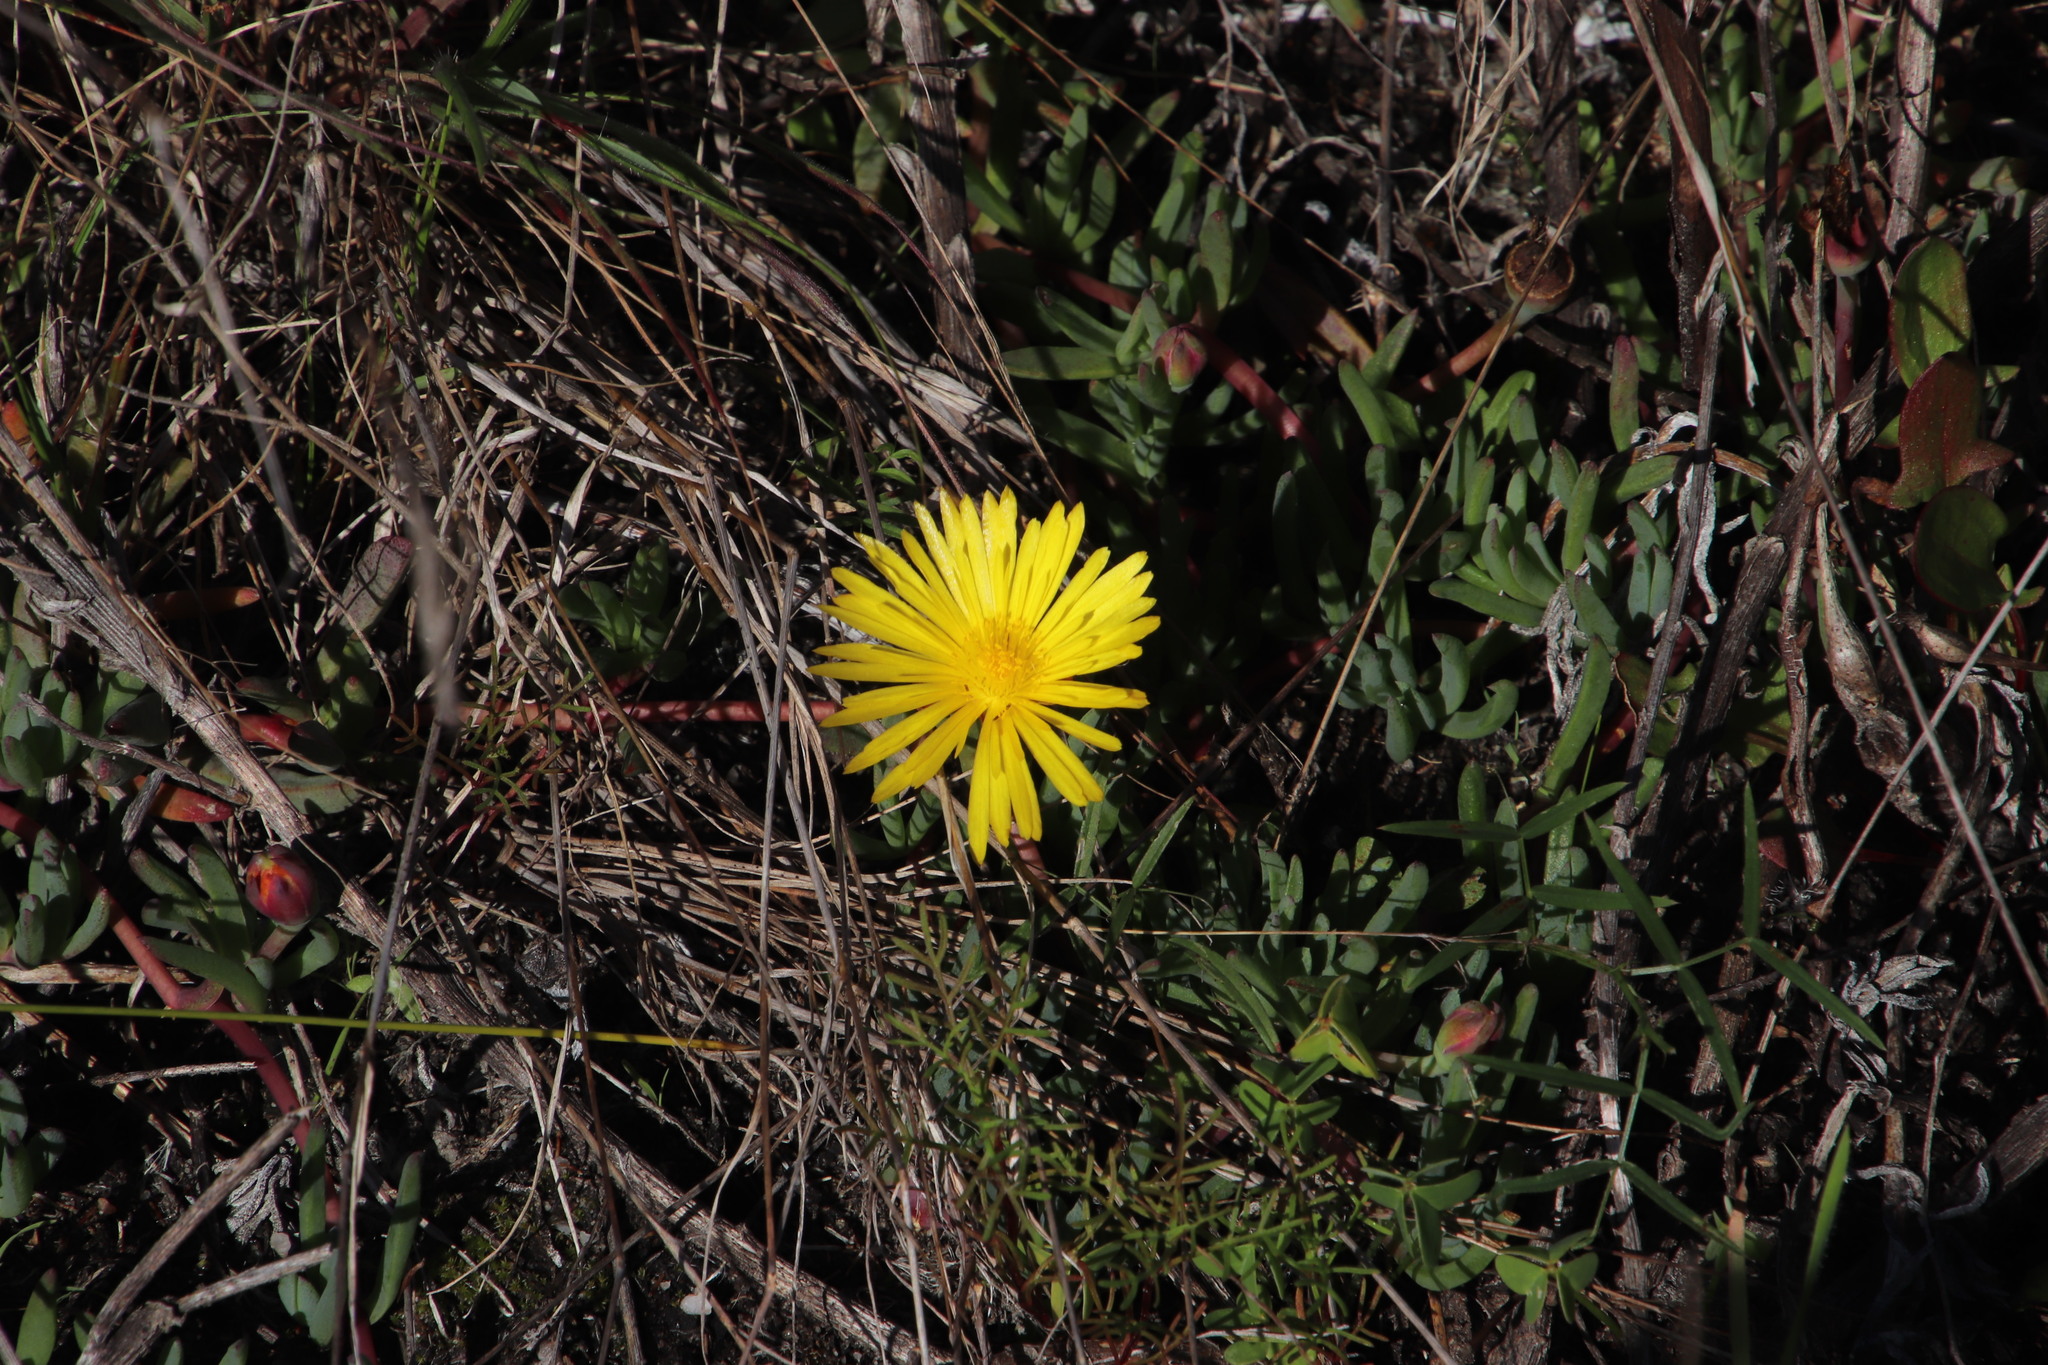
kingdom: Plantae
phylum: Tracheophyta
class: Magnoliopsida
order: Caryophyllales
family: Aizoaceae
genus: Lampranthus
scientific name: Lampranthus reptans
